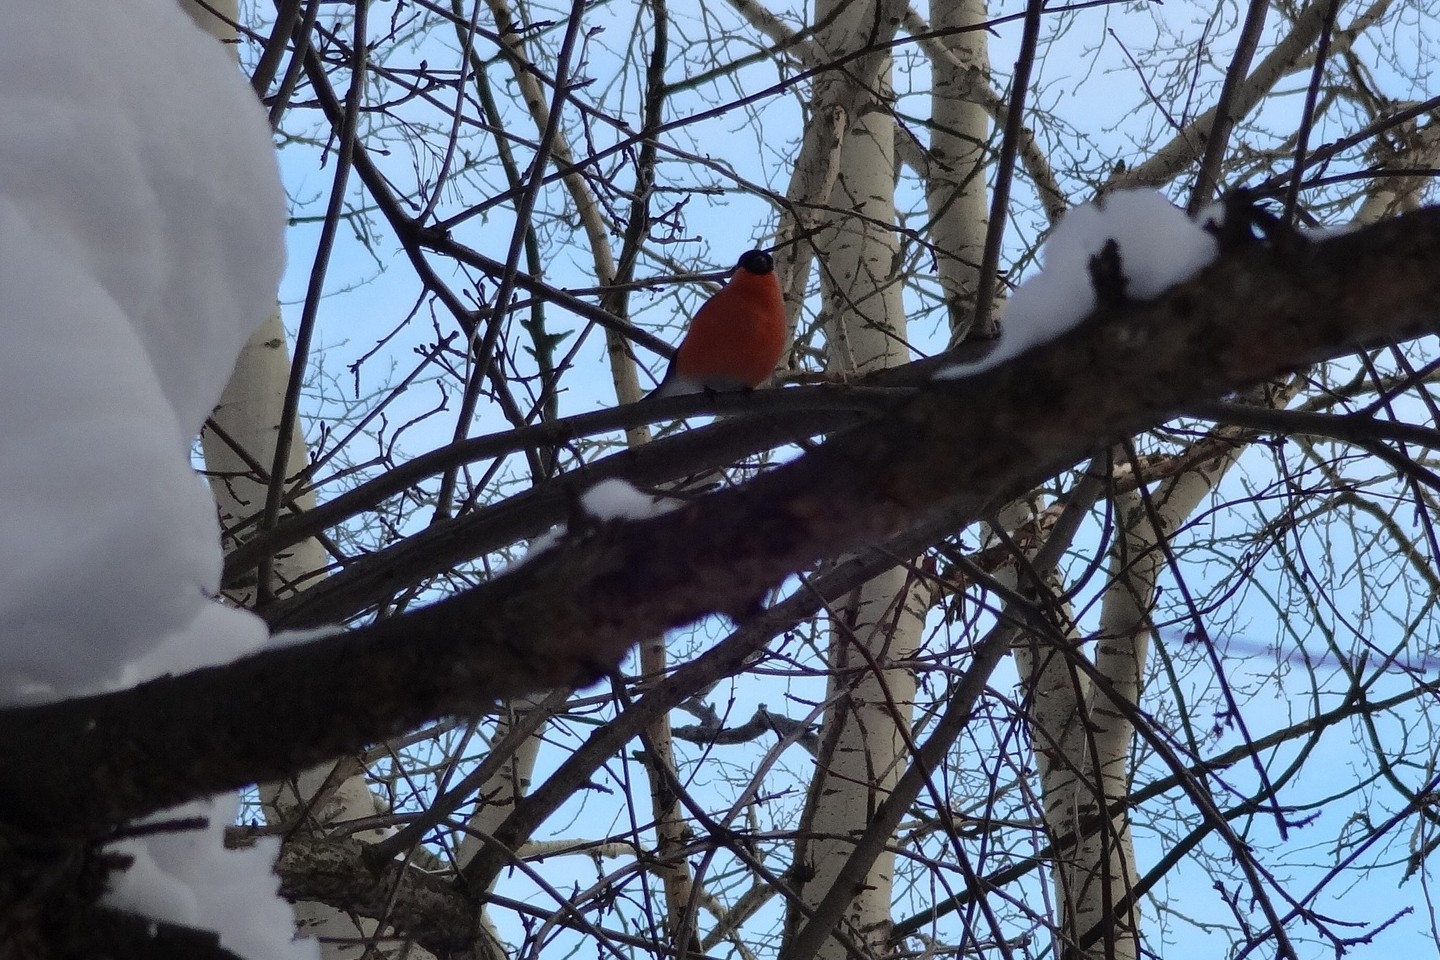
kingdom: Animalia
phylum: Chordata
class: Aves
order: Passeriformes
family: Fringillidae
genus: Pyrrhula
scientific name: Pyrrhula pyrrhula
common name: Eurasian bullfinch
